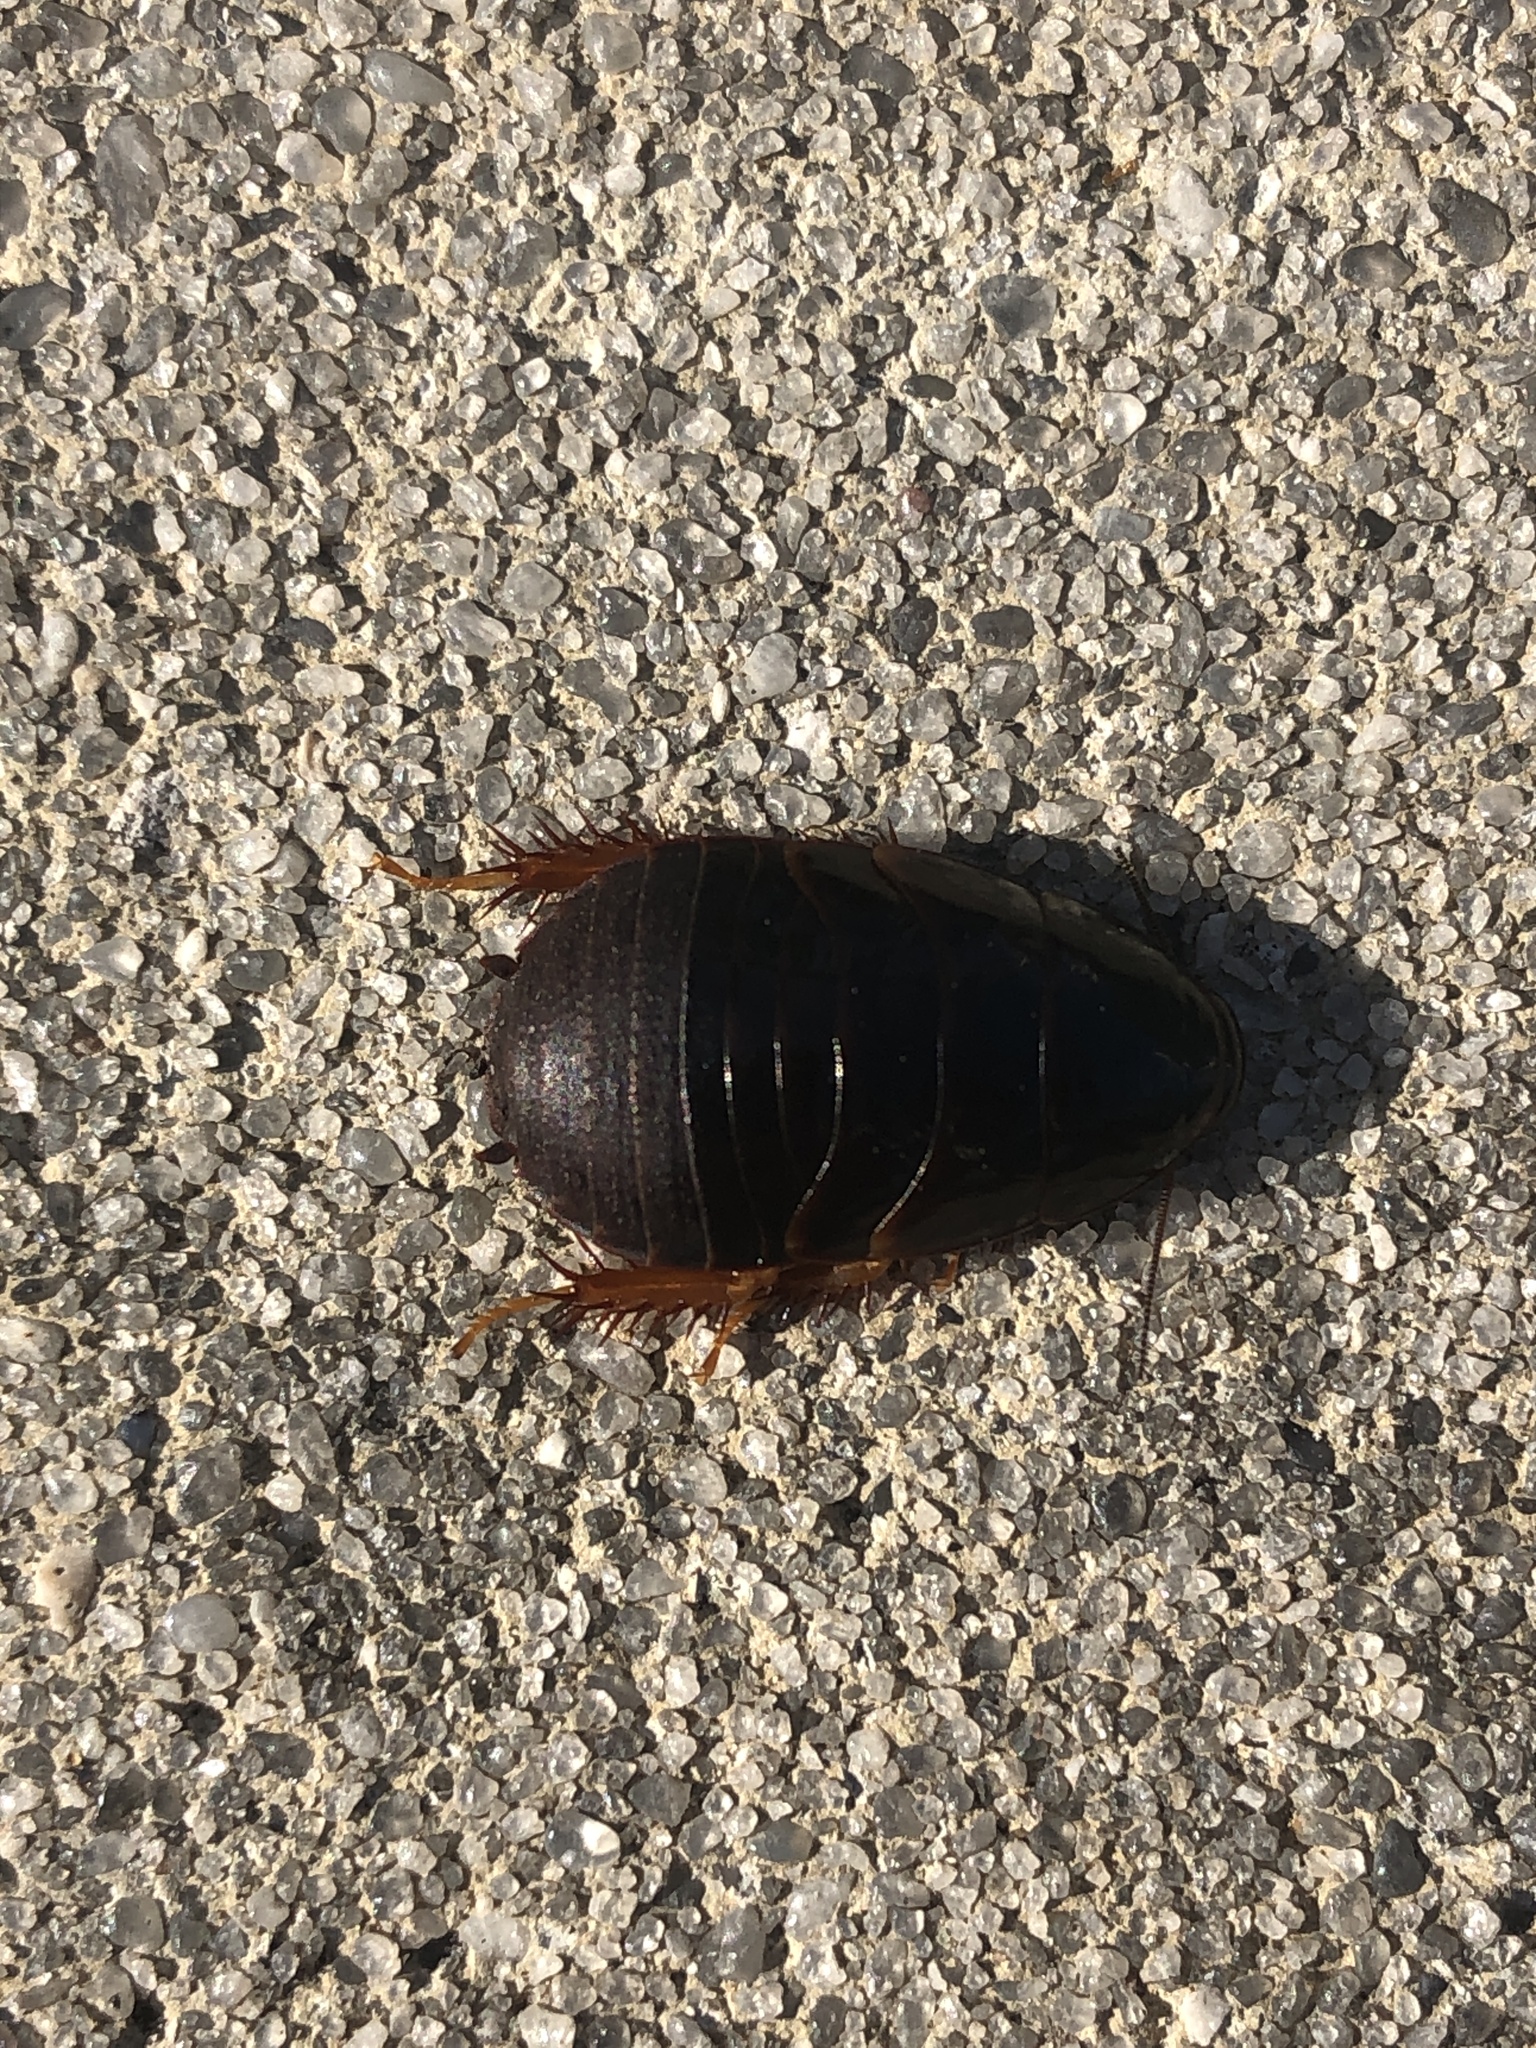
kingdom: Animalia
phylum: Arthropoda
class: Insecta
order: Blattodea
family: Blaberidae
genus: Pycnoscelus
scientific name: Pycnoscelus surinamensis
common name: Surinam cockroach
